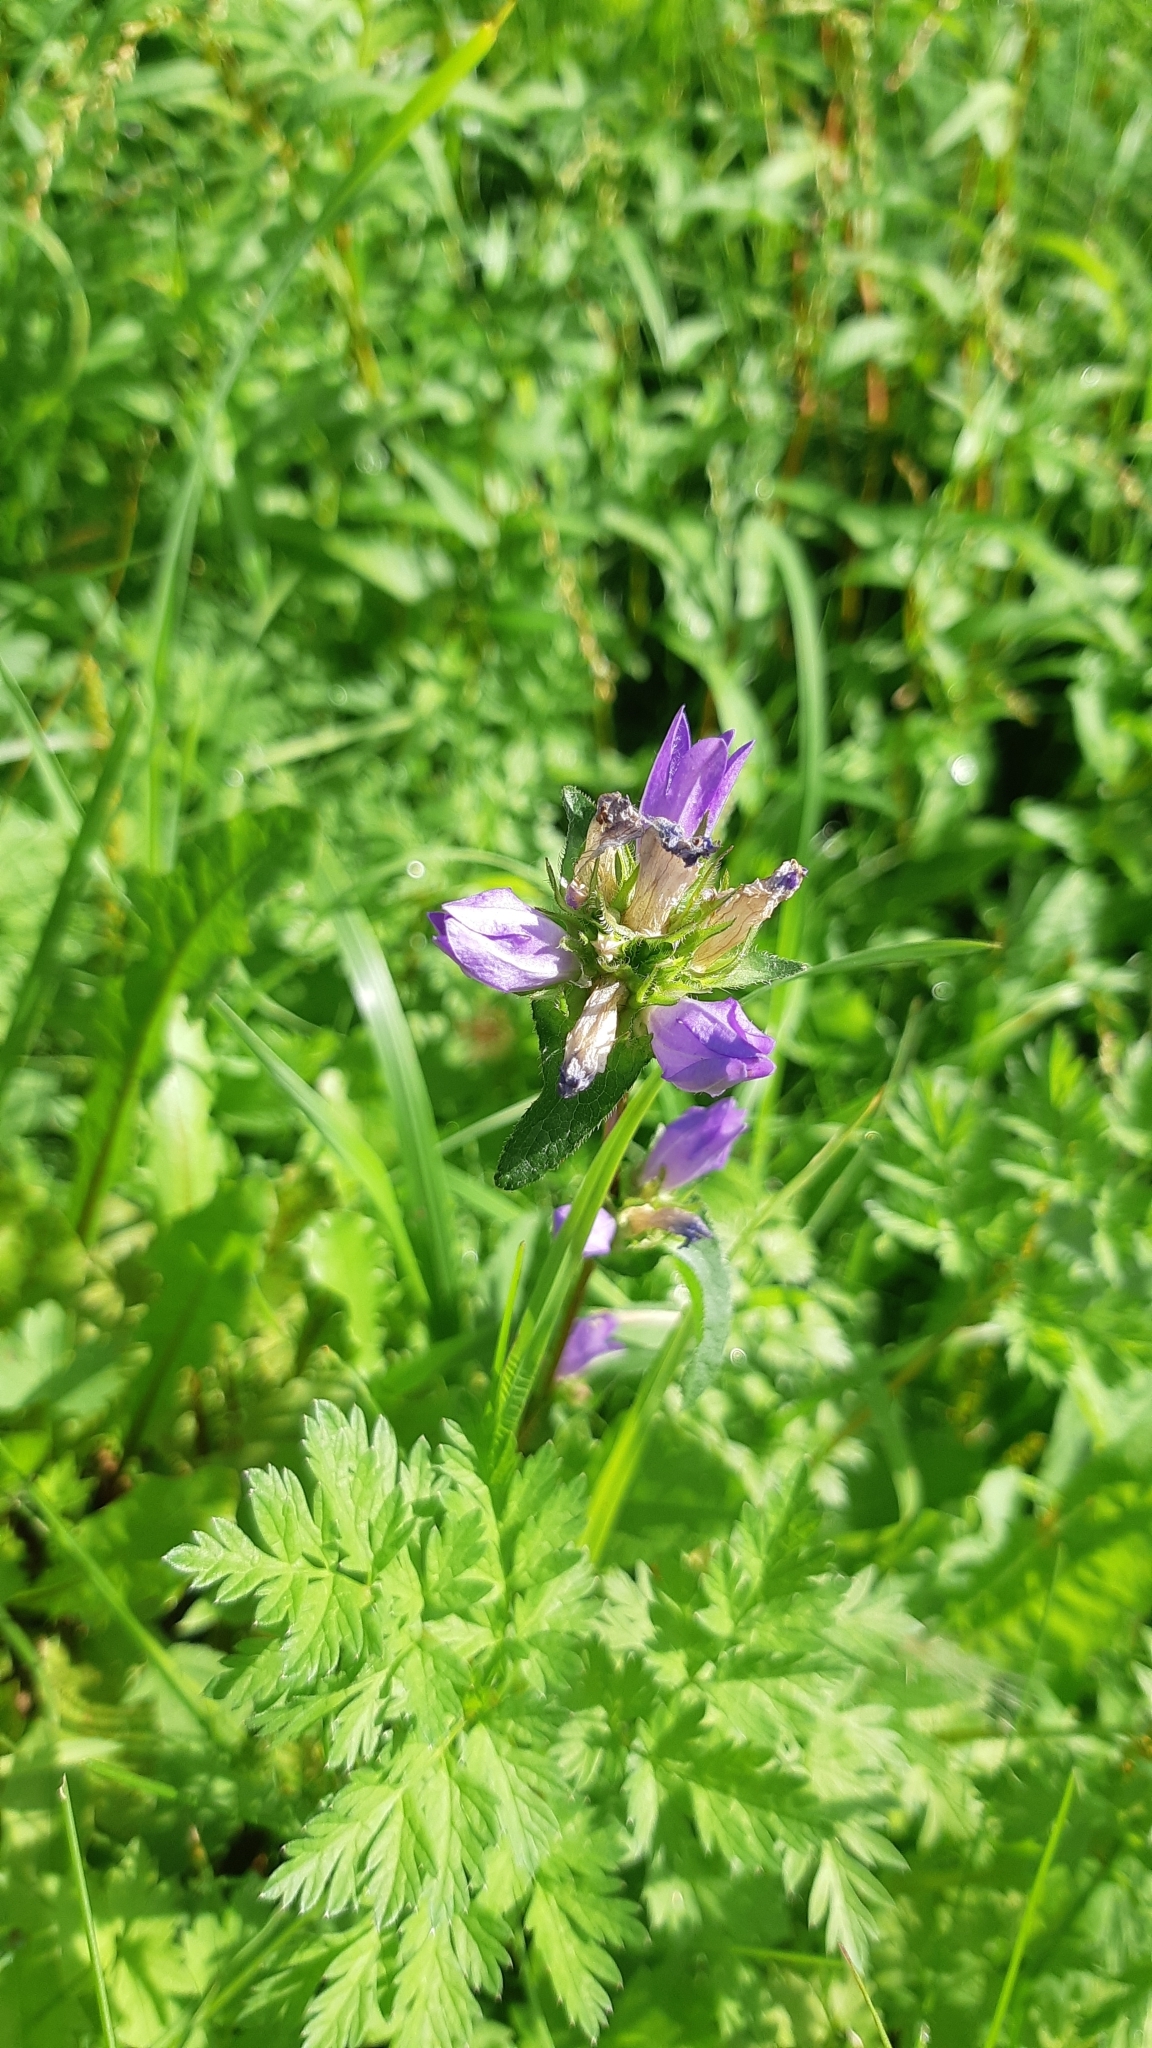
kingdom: Plantae
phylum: Tracheophyta
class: Magnoliopsida
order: Asterales
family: Campanulaceae
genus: Campanula
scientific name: Campanula glomerata
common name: Clustered bellflower
